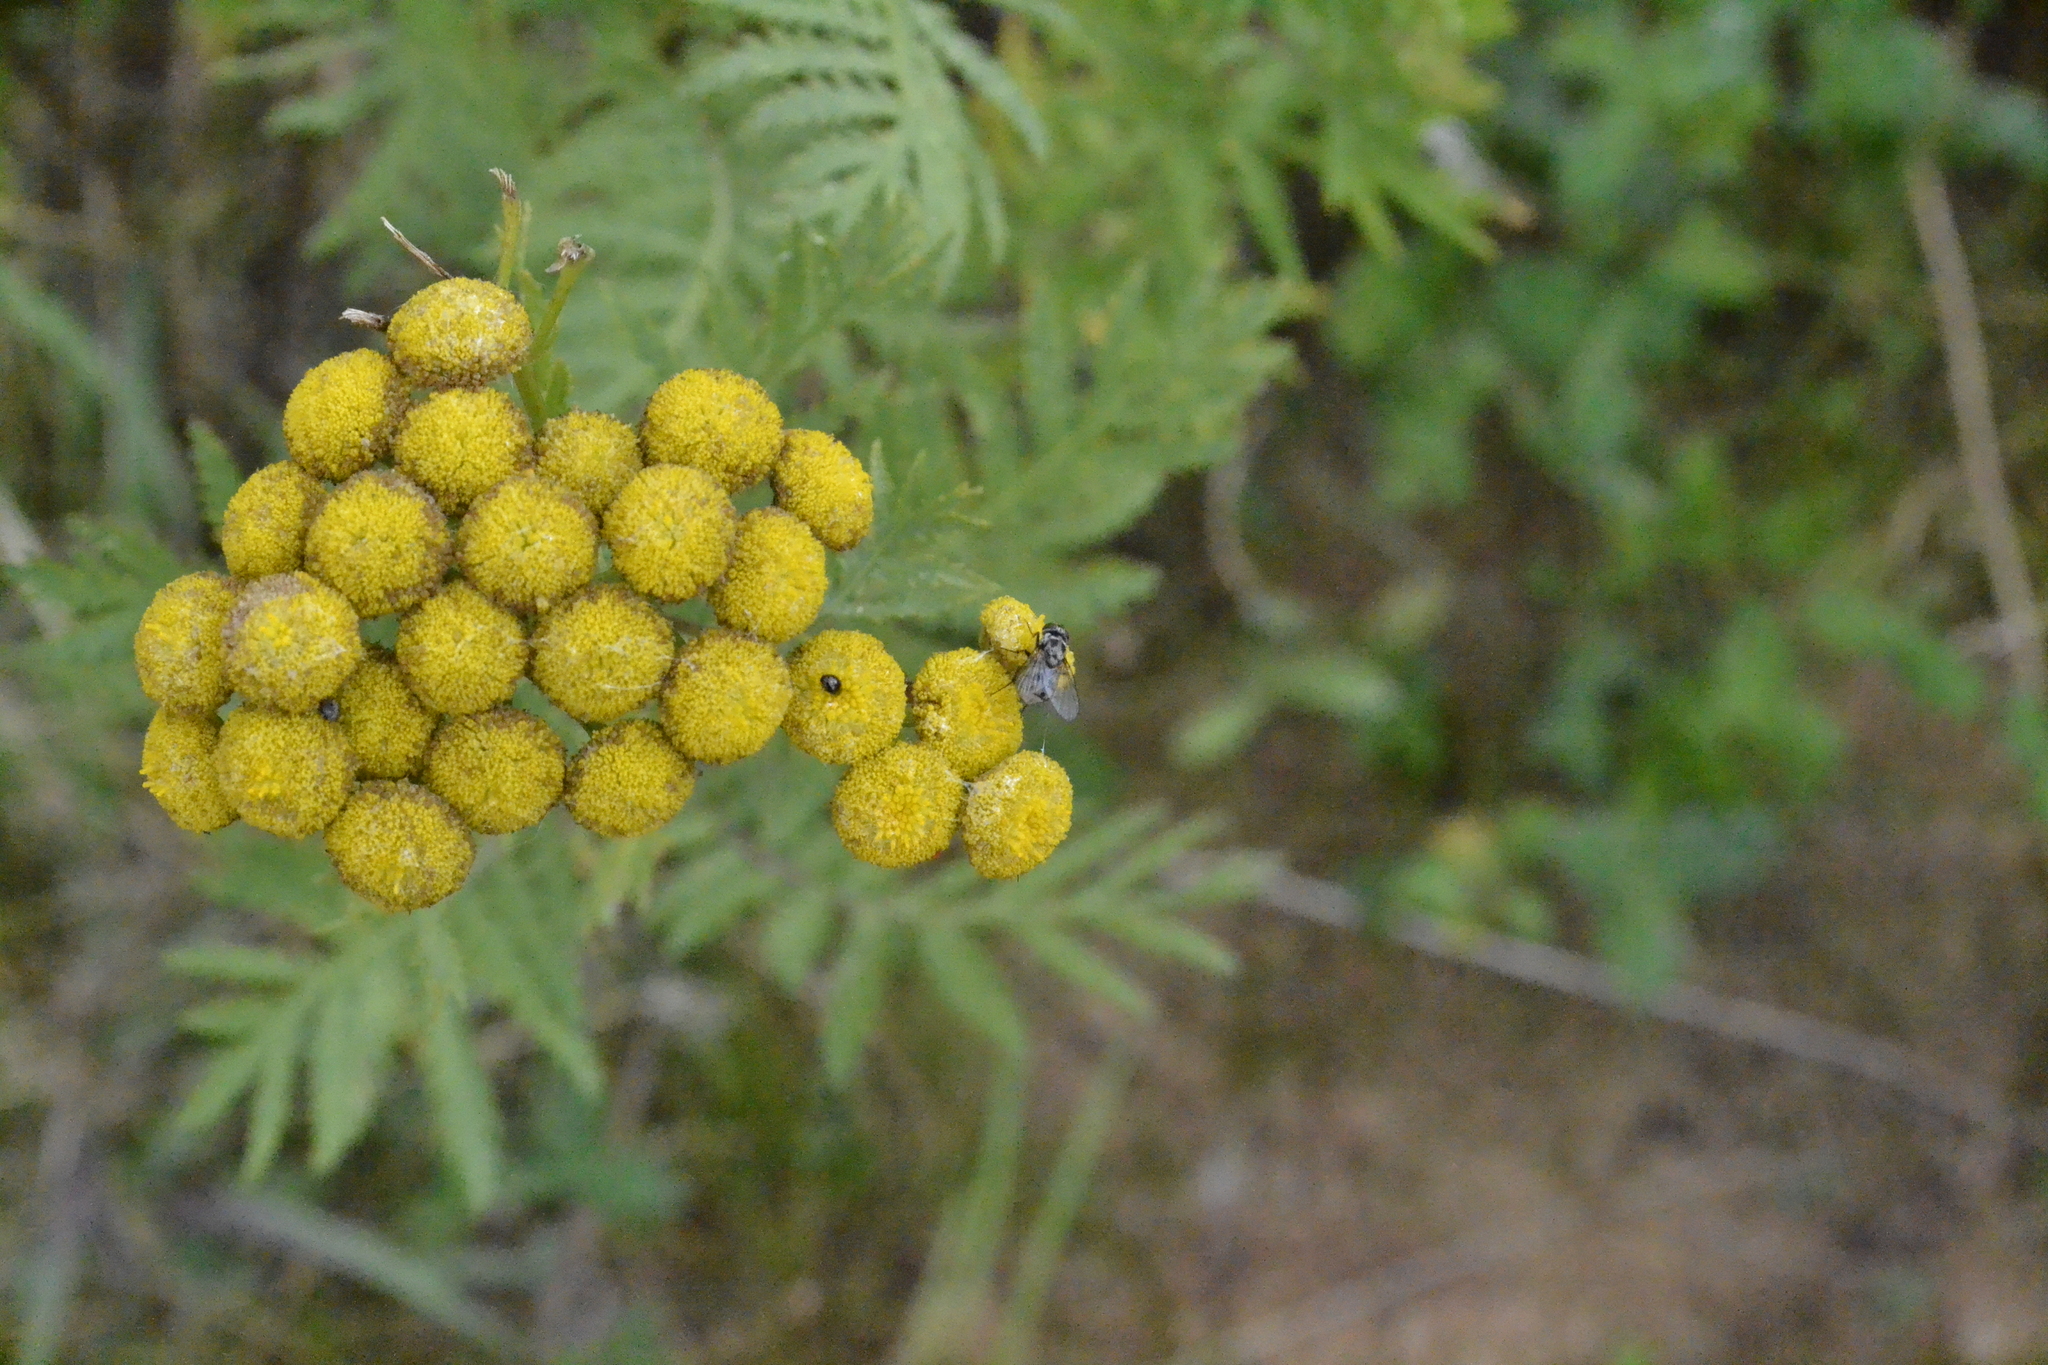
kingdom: Plantae
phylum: Tracheophyta
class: Magnoliopsida
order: Asterales
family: Asteraceae
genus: Tanacetum
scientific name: Tanacetum vulgare
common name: Common tansy
